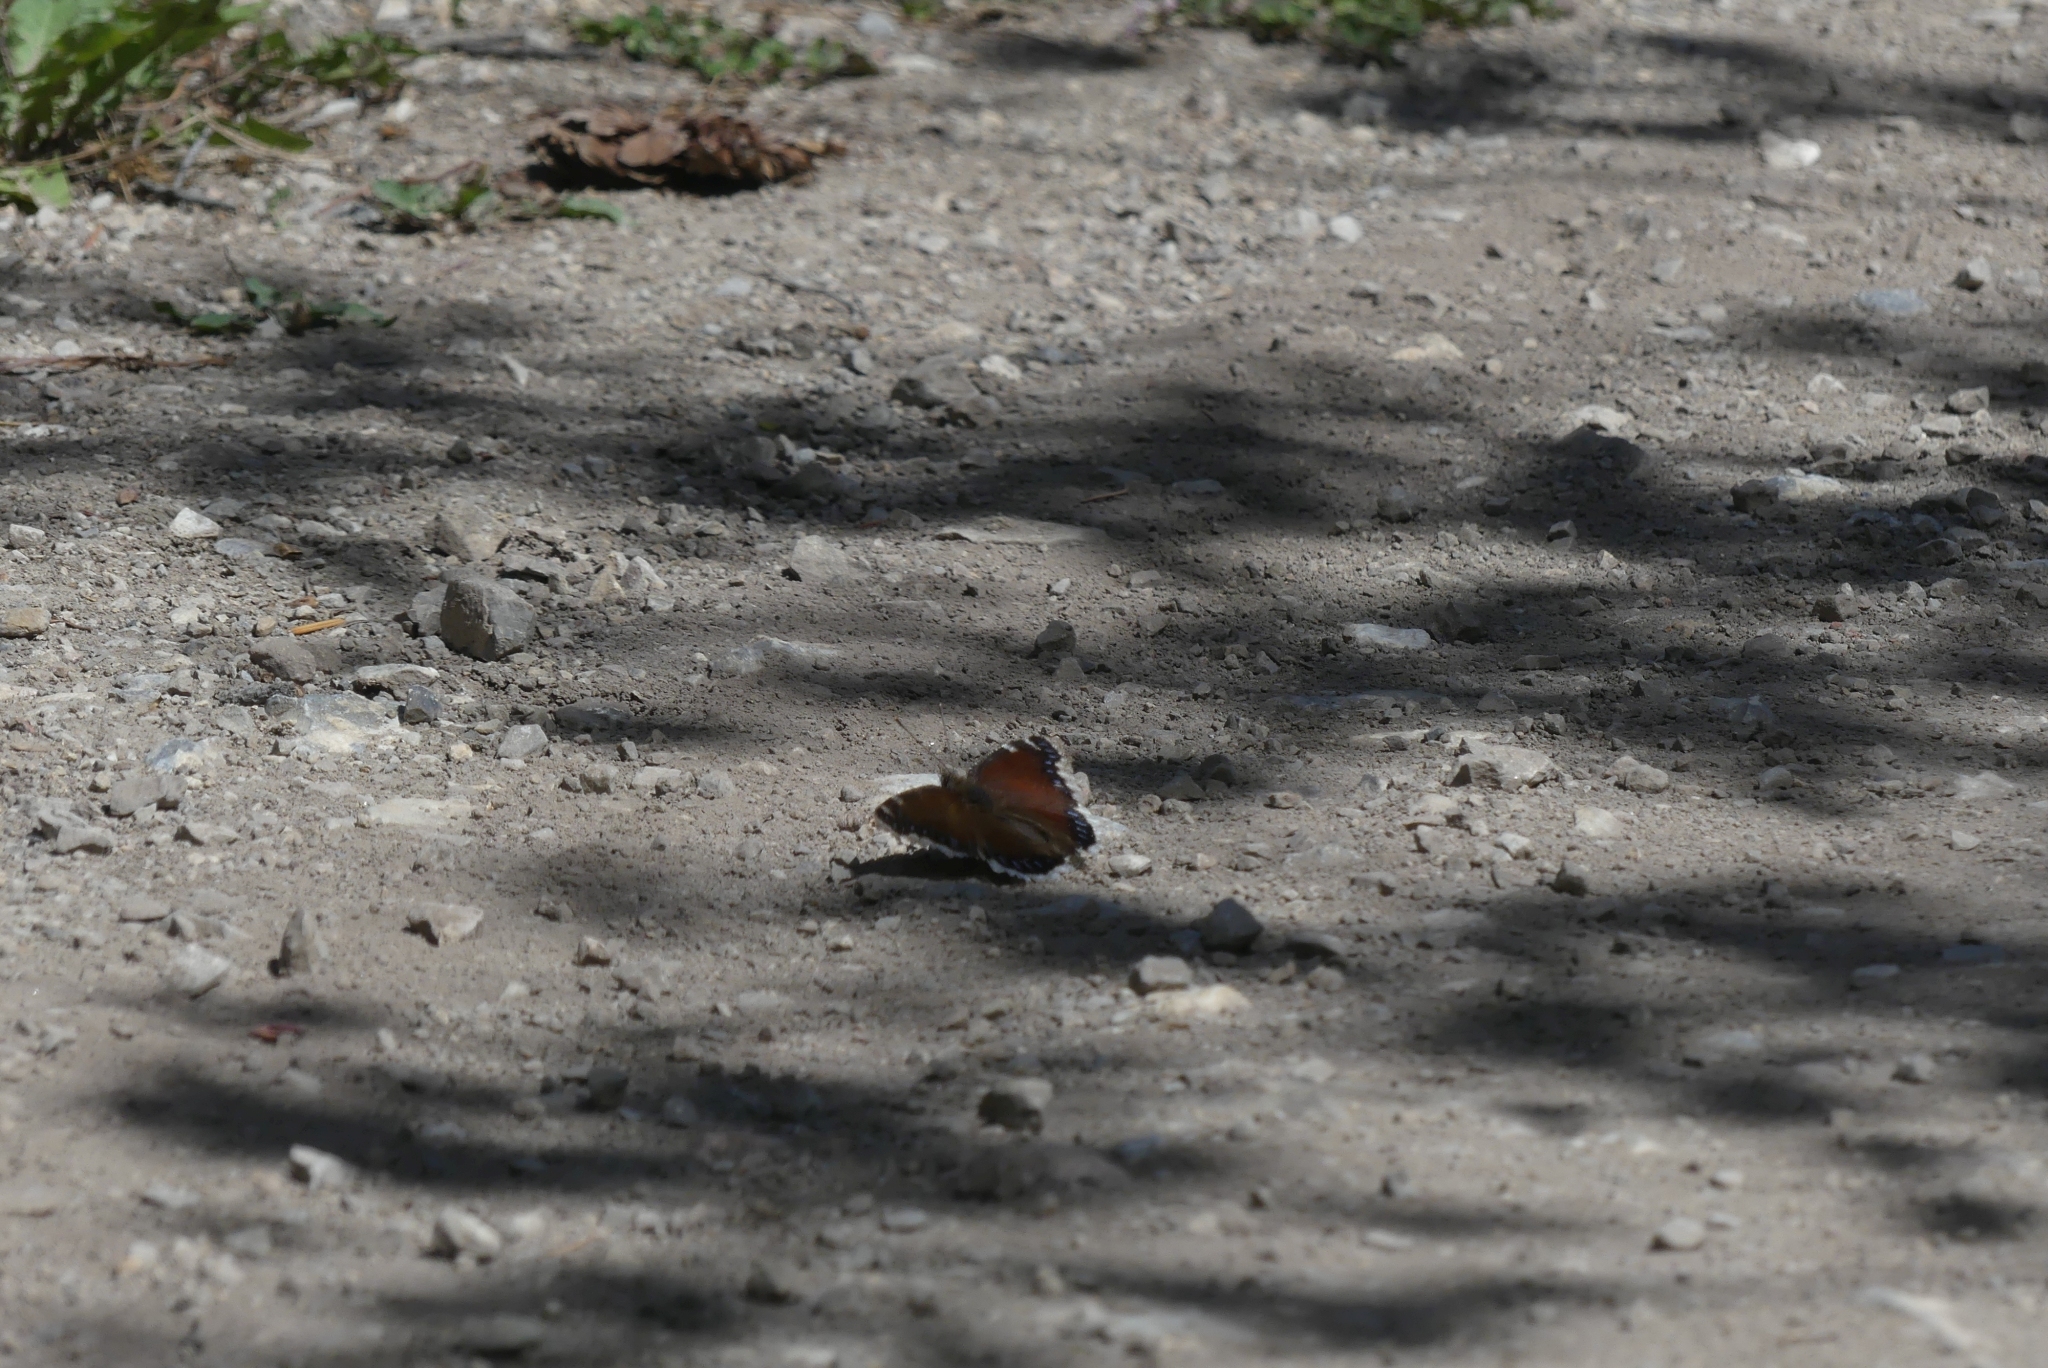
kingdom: Animalia
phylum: Arthropoda
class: Insecta
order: Lepidoptera
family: Nymphalidae
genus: Nymphalis
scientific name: Nymphalis antiopa
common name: Camberwell beauty
